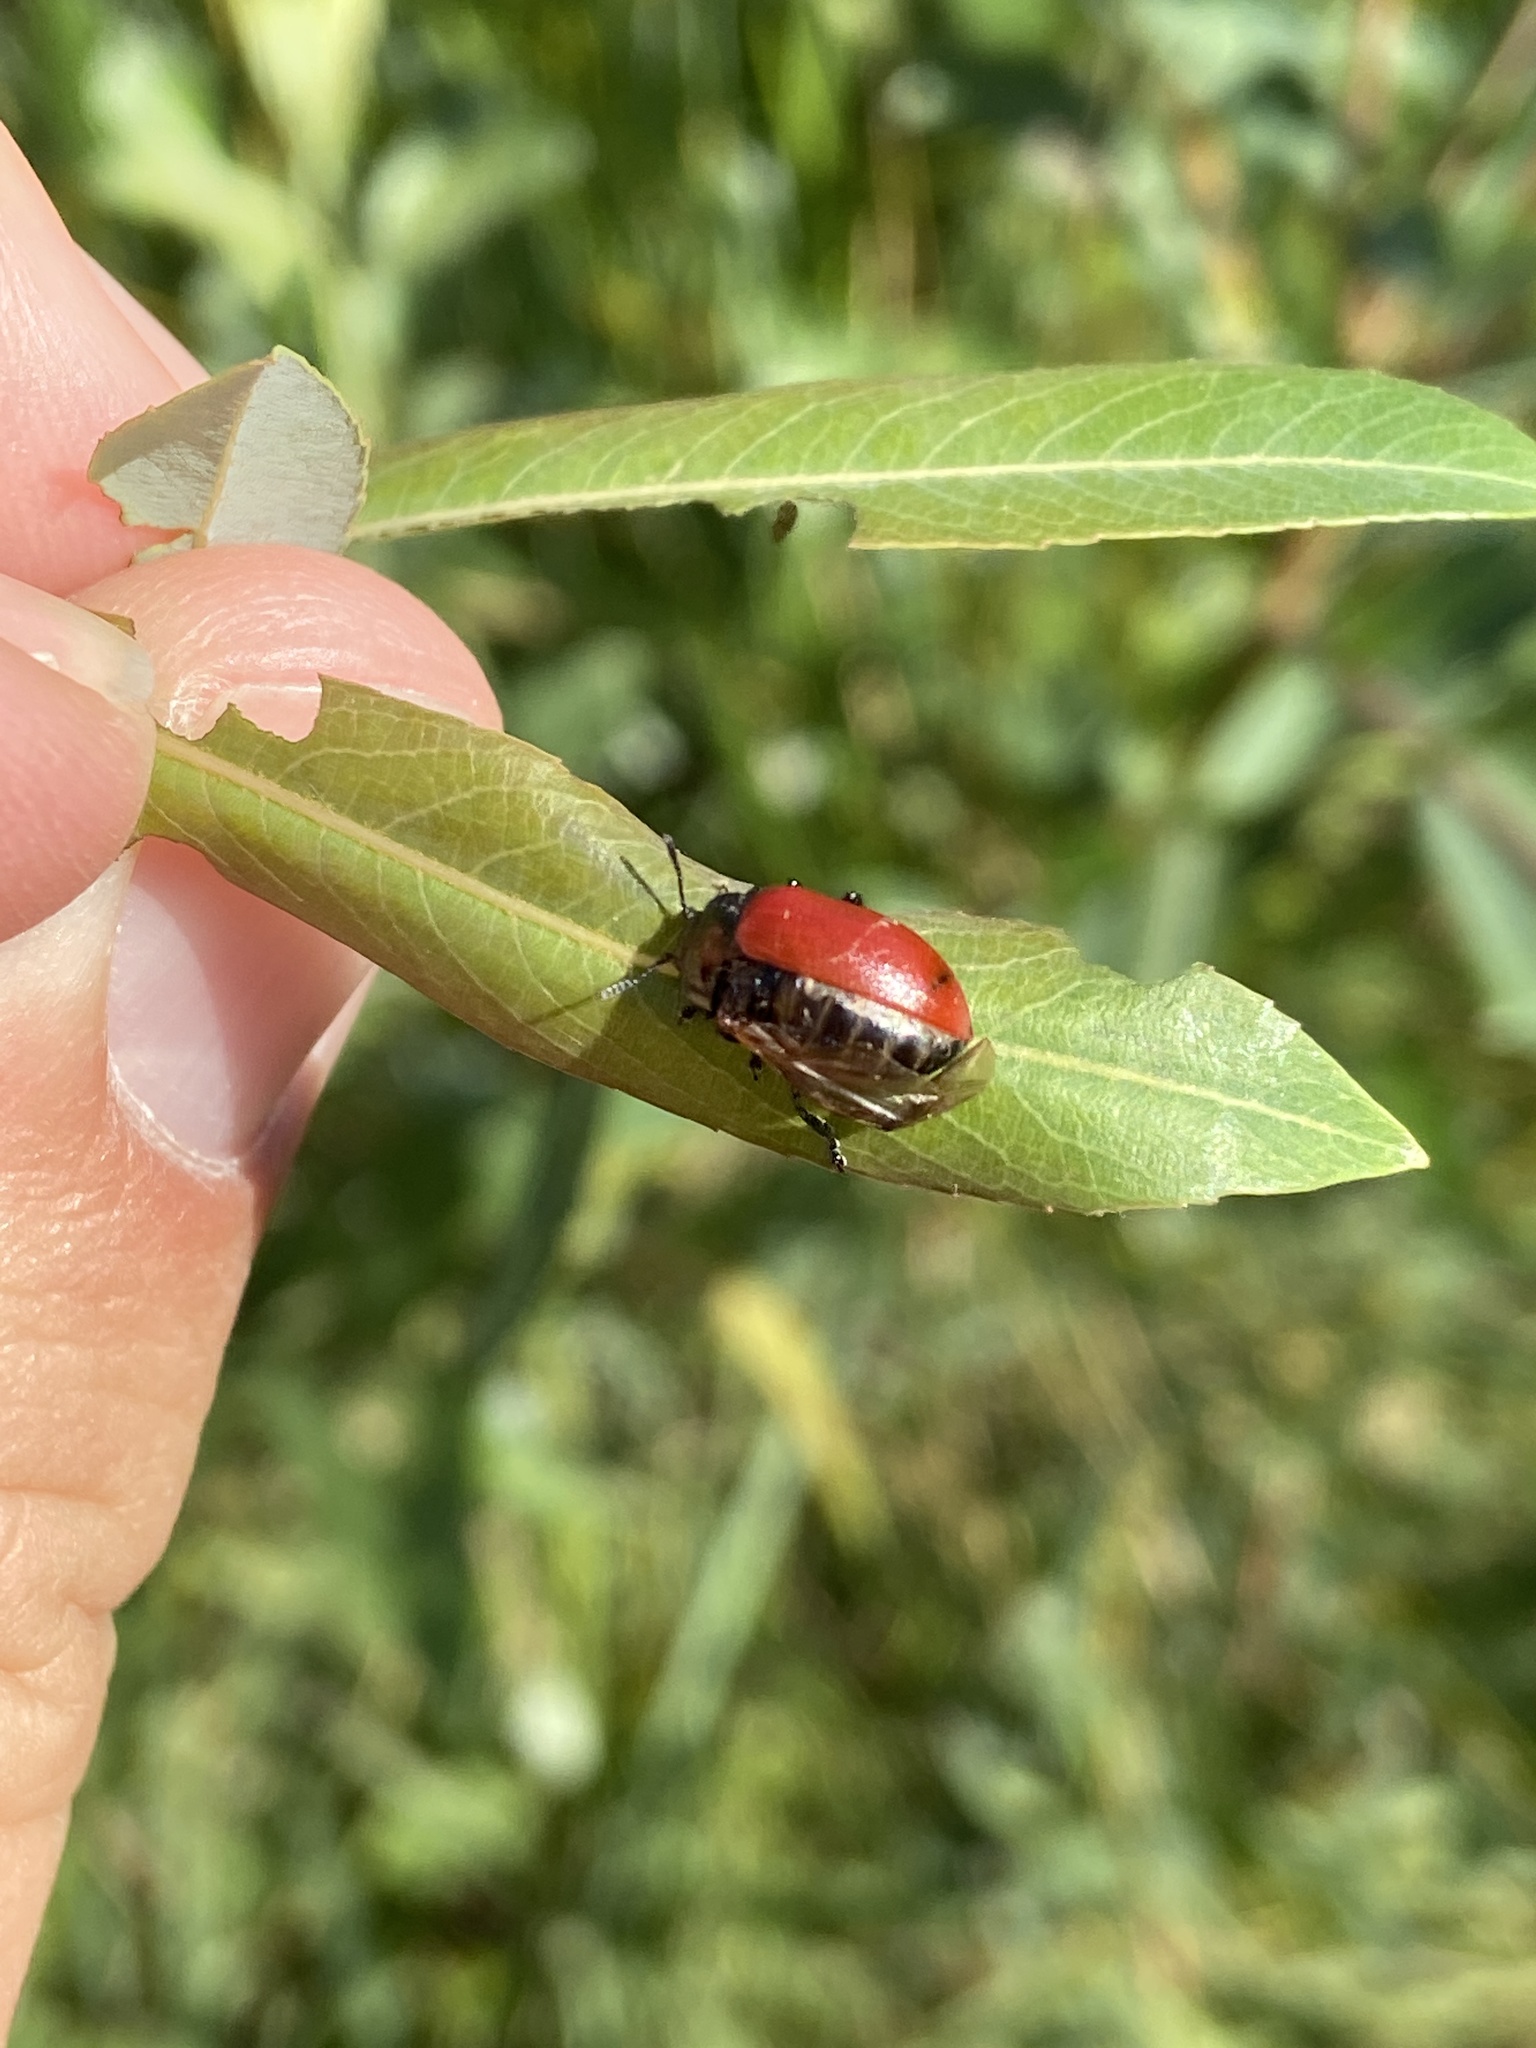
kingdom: Animalia
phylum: Arthropoda
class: Insecta
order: Coleoptera
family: Chrysomelidae
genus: Chrysomela
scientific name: Chrysomela populi
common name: Red poplar leaf beetle
